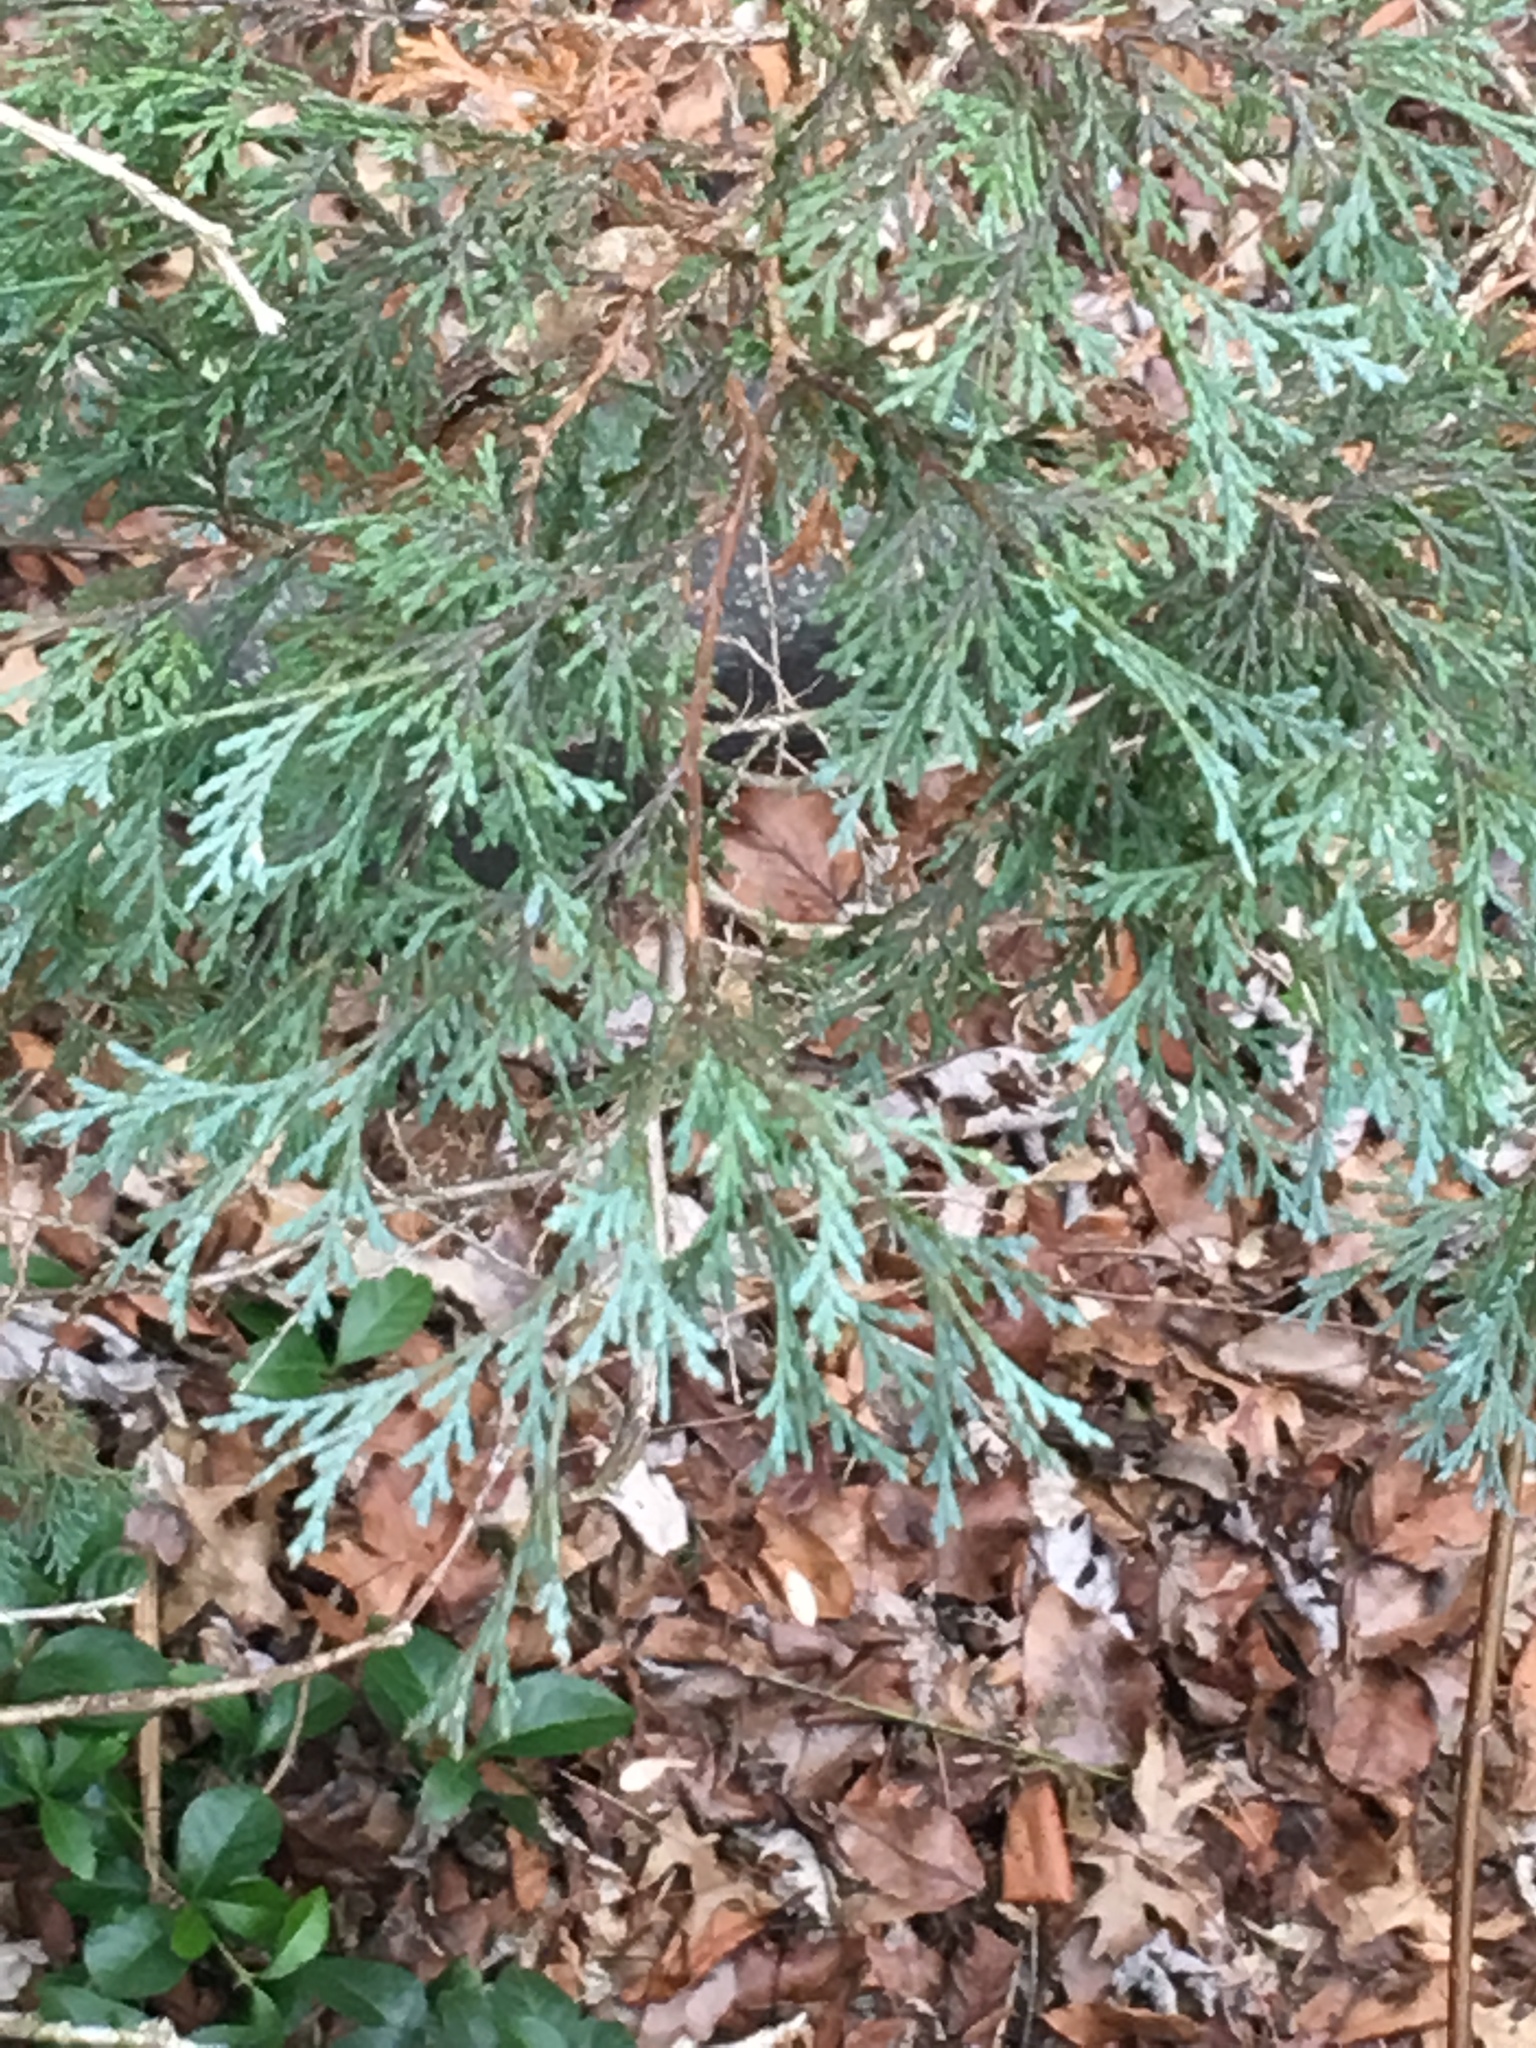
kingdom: Plantae
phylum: Tracheophyta
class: Pinopsida
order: Pinales
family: Cupressaceae
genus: Chamaecyparis
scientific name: Chamaecyparis thyoides
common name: Atlantic white cedar
